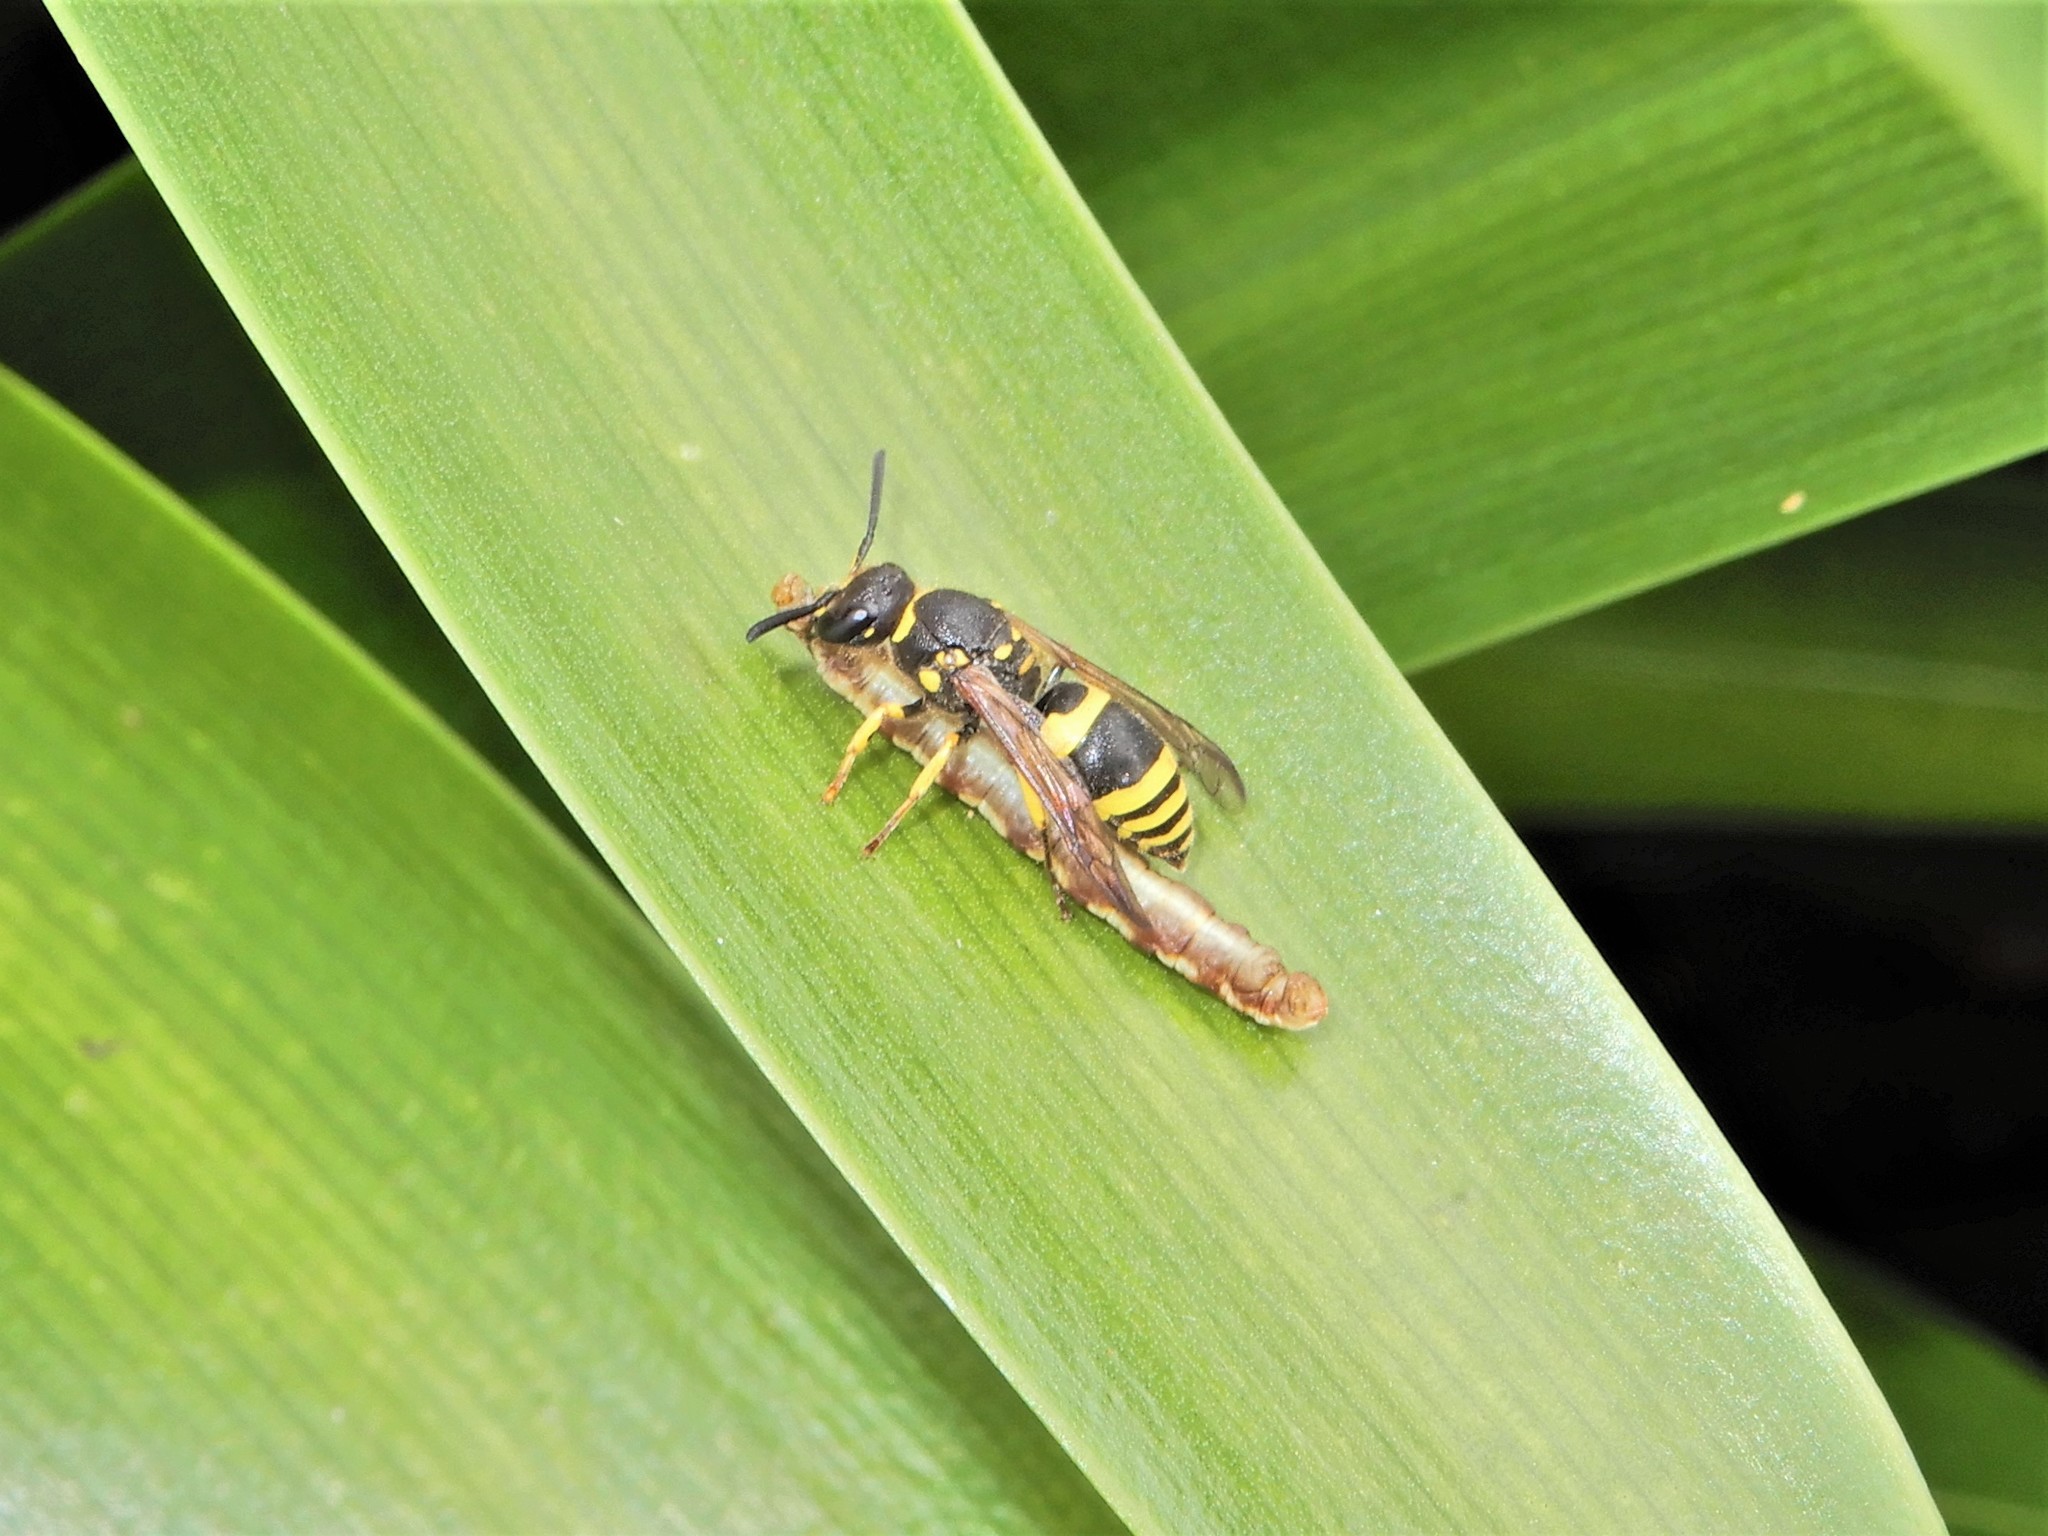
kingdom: Animalia
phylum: Arthropoda
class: Insecta
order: Hymenoptera
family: Vespidae
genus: Ancistrocerus
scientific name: Ancistrocerus gazella
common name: European tube wasp
